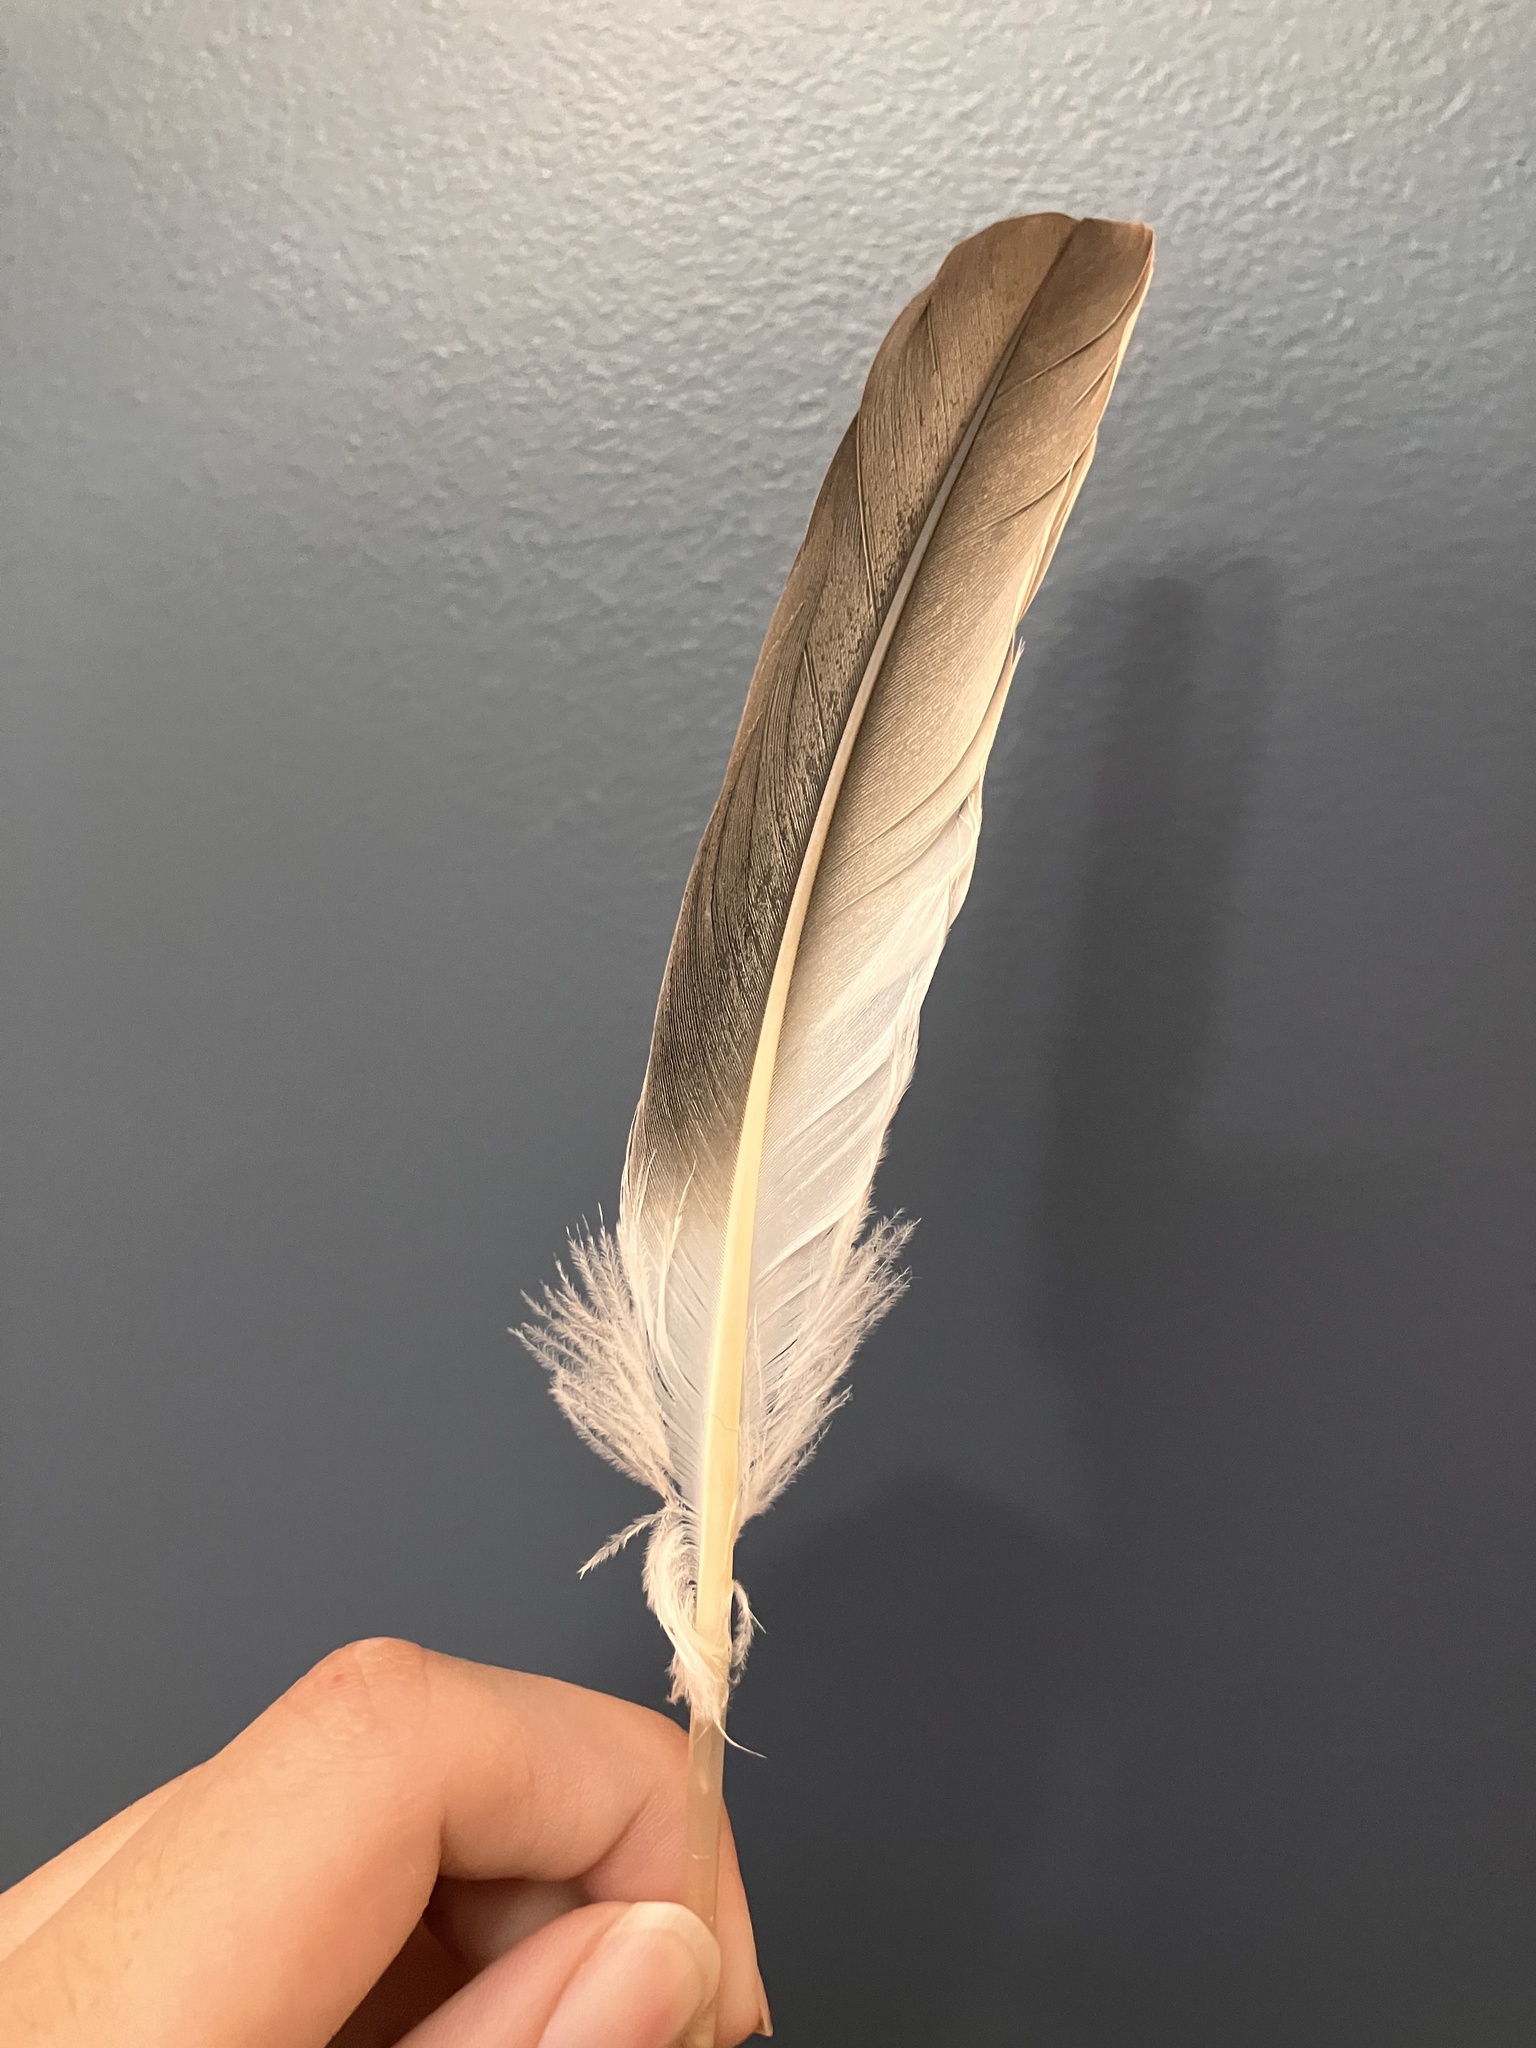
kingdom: Animalia
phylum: Chordata
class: Aves
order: Suliformes
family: Sulidae
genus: Morus
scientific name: Morus bassanus
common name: Northern gannet
